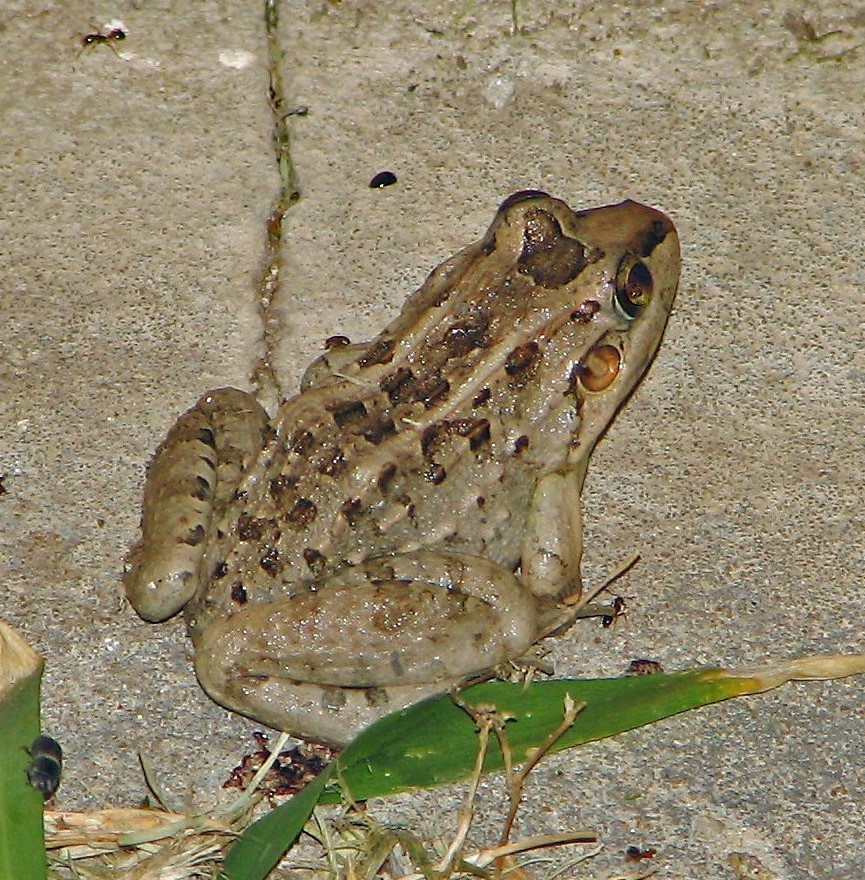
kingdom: Animalia
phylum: Chordata
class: Amphibia
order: Anura
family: Leptodactylidae
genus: Leptodactylus
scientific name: Leptodactylus macrosternum
